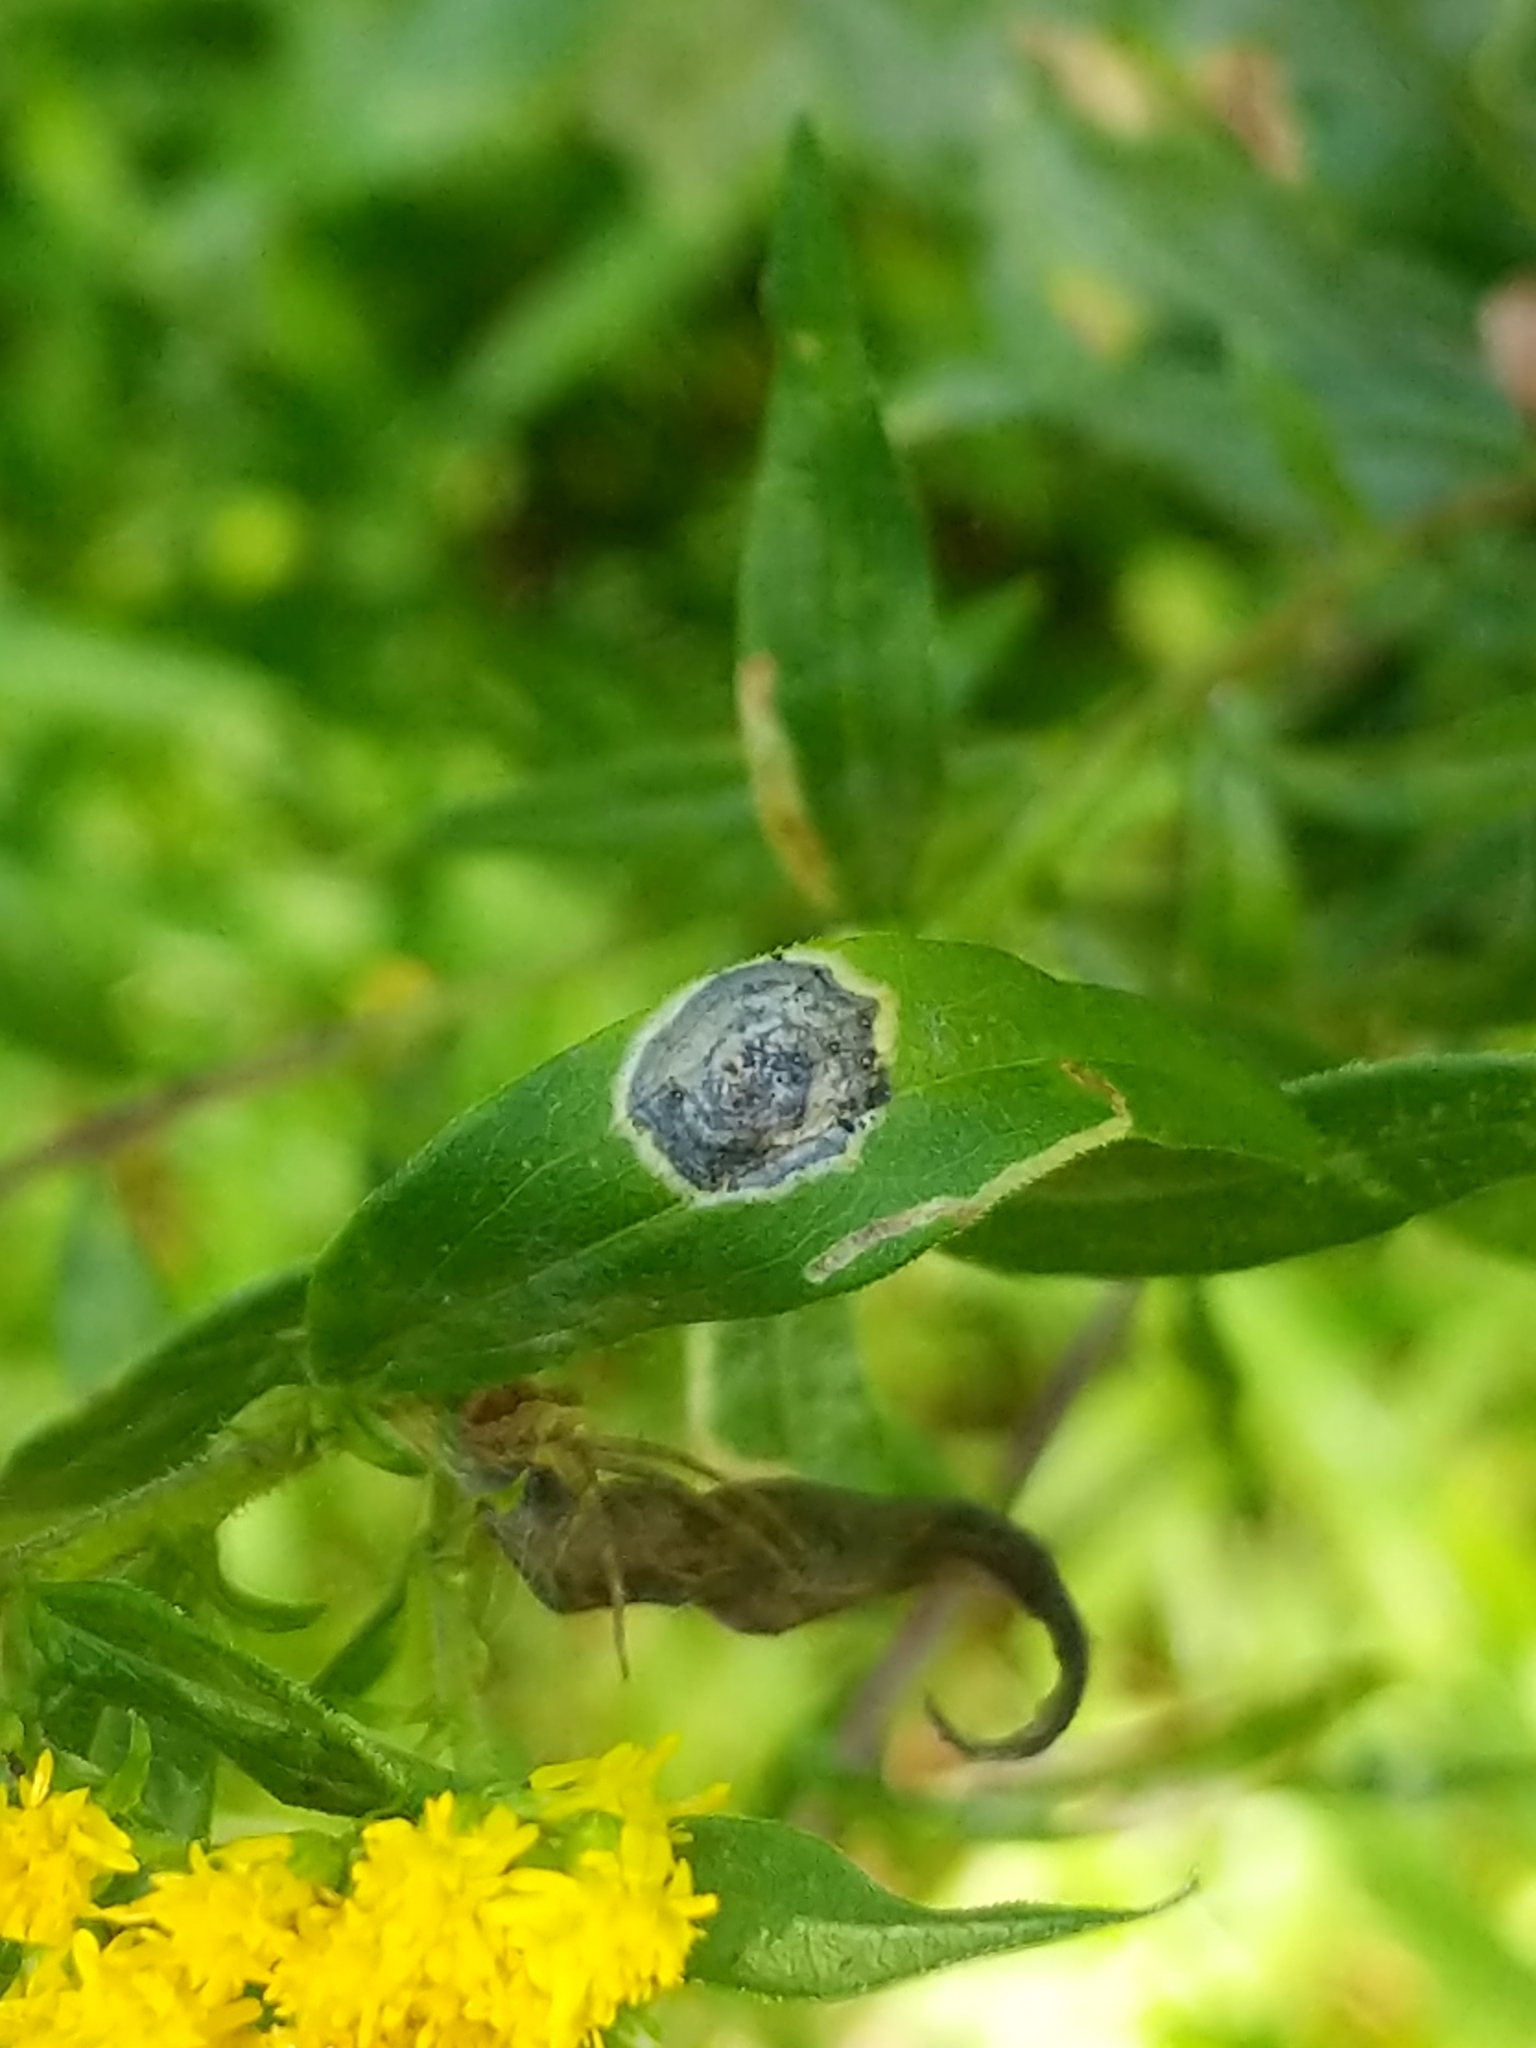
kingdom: Animalia
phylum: Arthropoda
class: Insecta
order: Diptera
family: Cecidomyiidae
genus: Asteromyia
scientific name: Asteromyia carbonifera
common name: Carbonifera goldenrod gall midge
